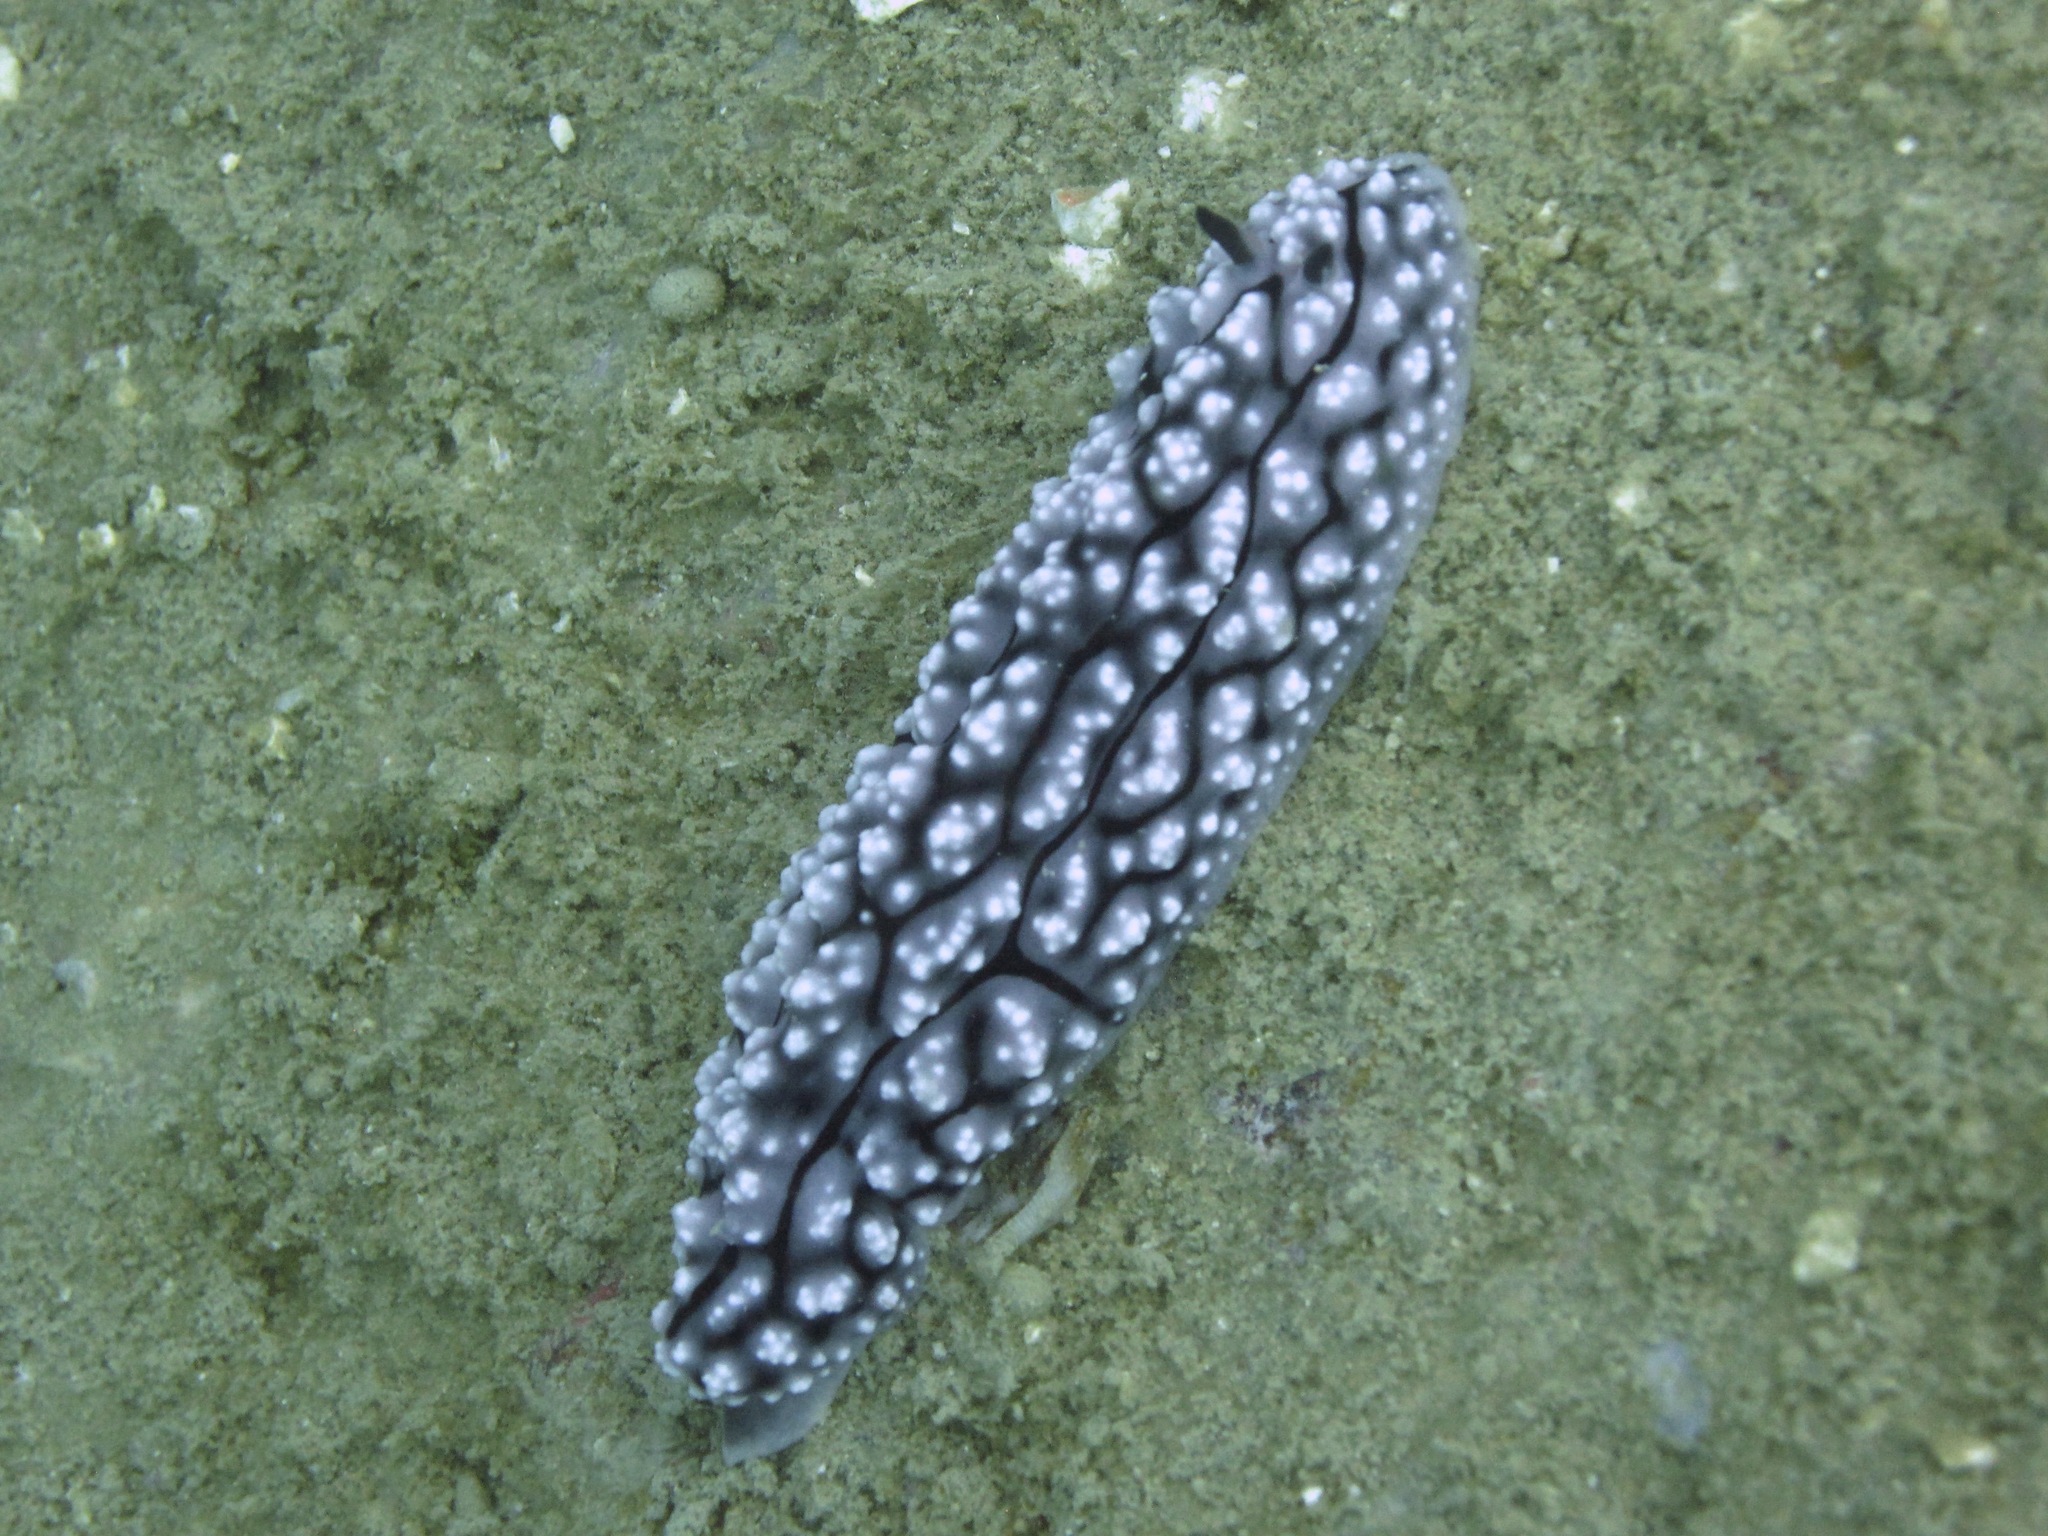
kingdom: Animalia
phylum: Mollusca
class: Gastropoda
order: Nudibranchia
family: Phyllidiidae
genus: Phyllidiopsis
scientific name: Phyllidiopsis krempfi
